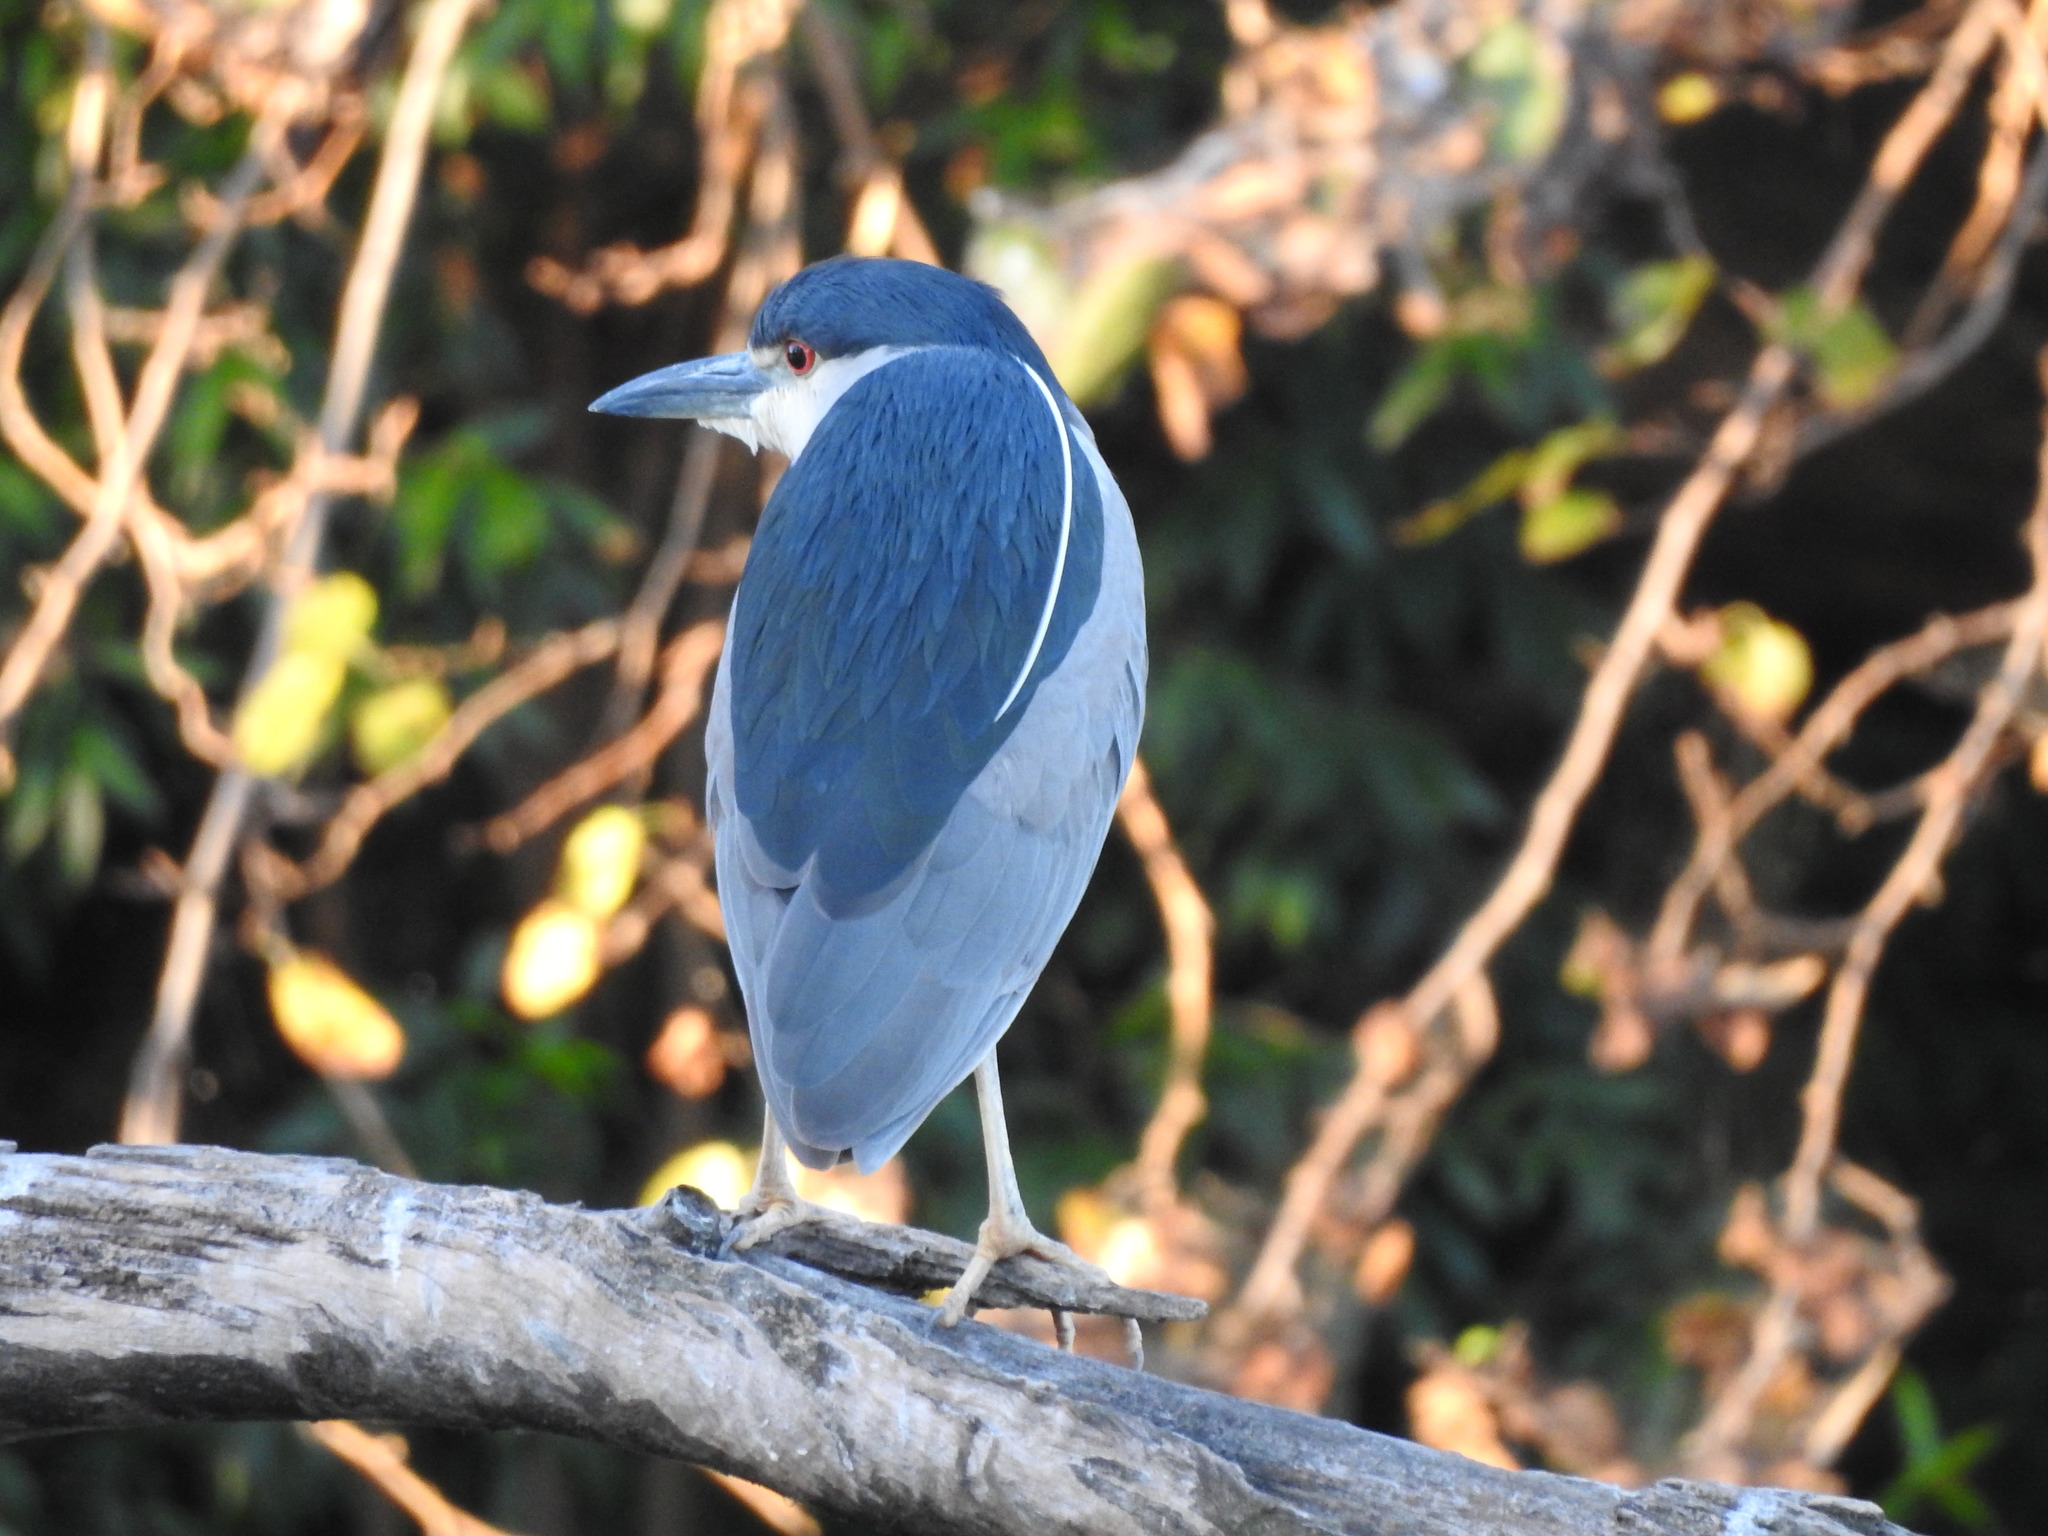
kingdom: Animalia
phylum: Chordata
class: Aves
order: Pelecaniformes
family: Ardeidae
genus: Nycticorax
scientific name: Nycticorax nycticorax
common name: Black-crowned night heron
